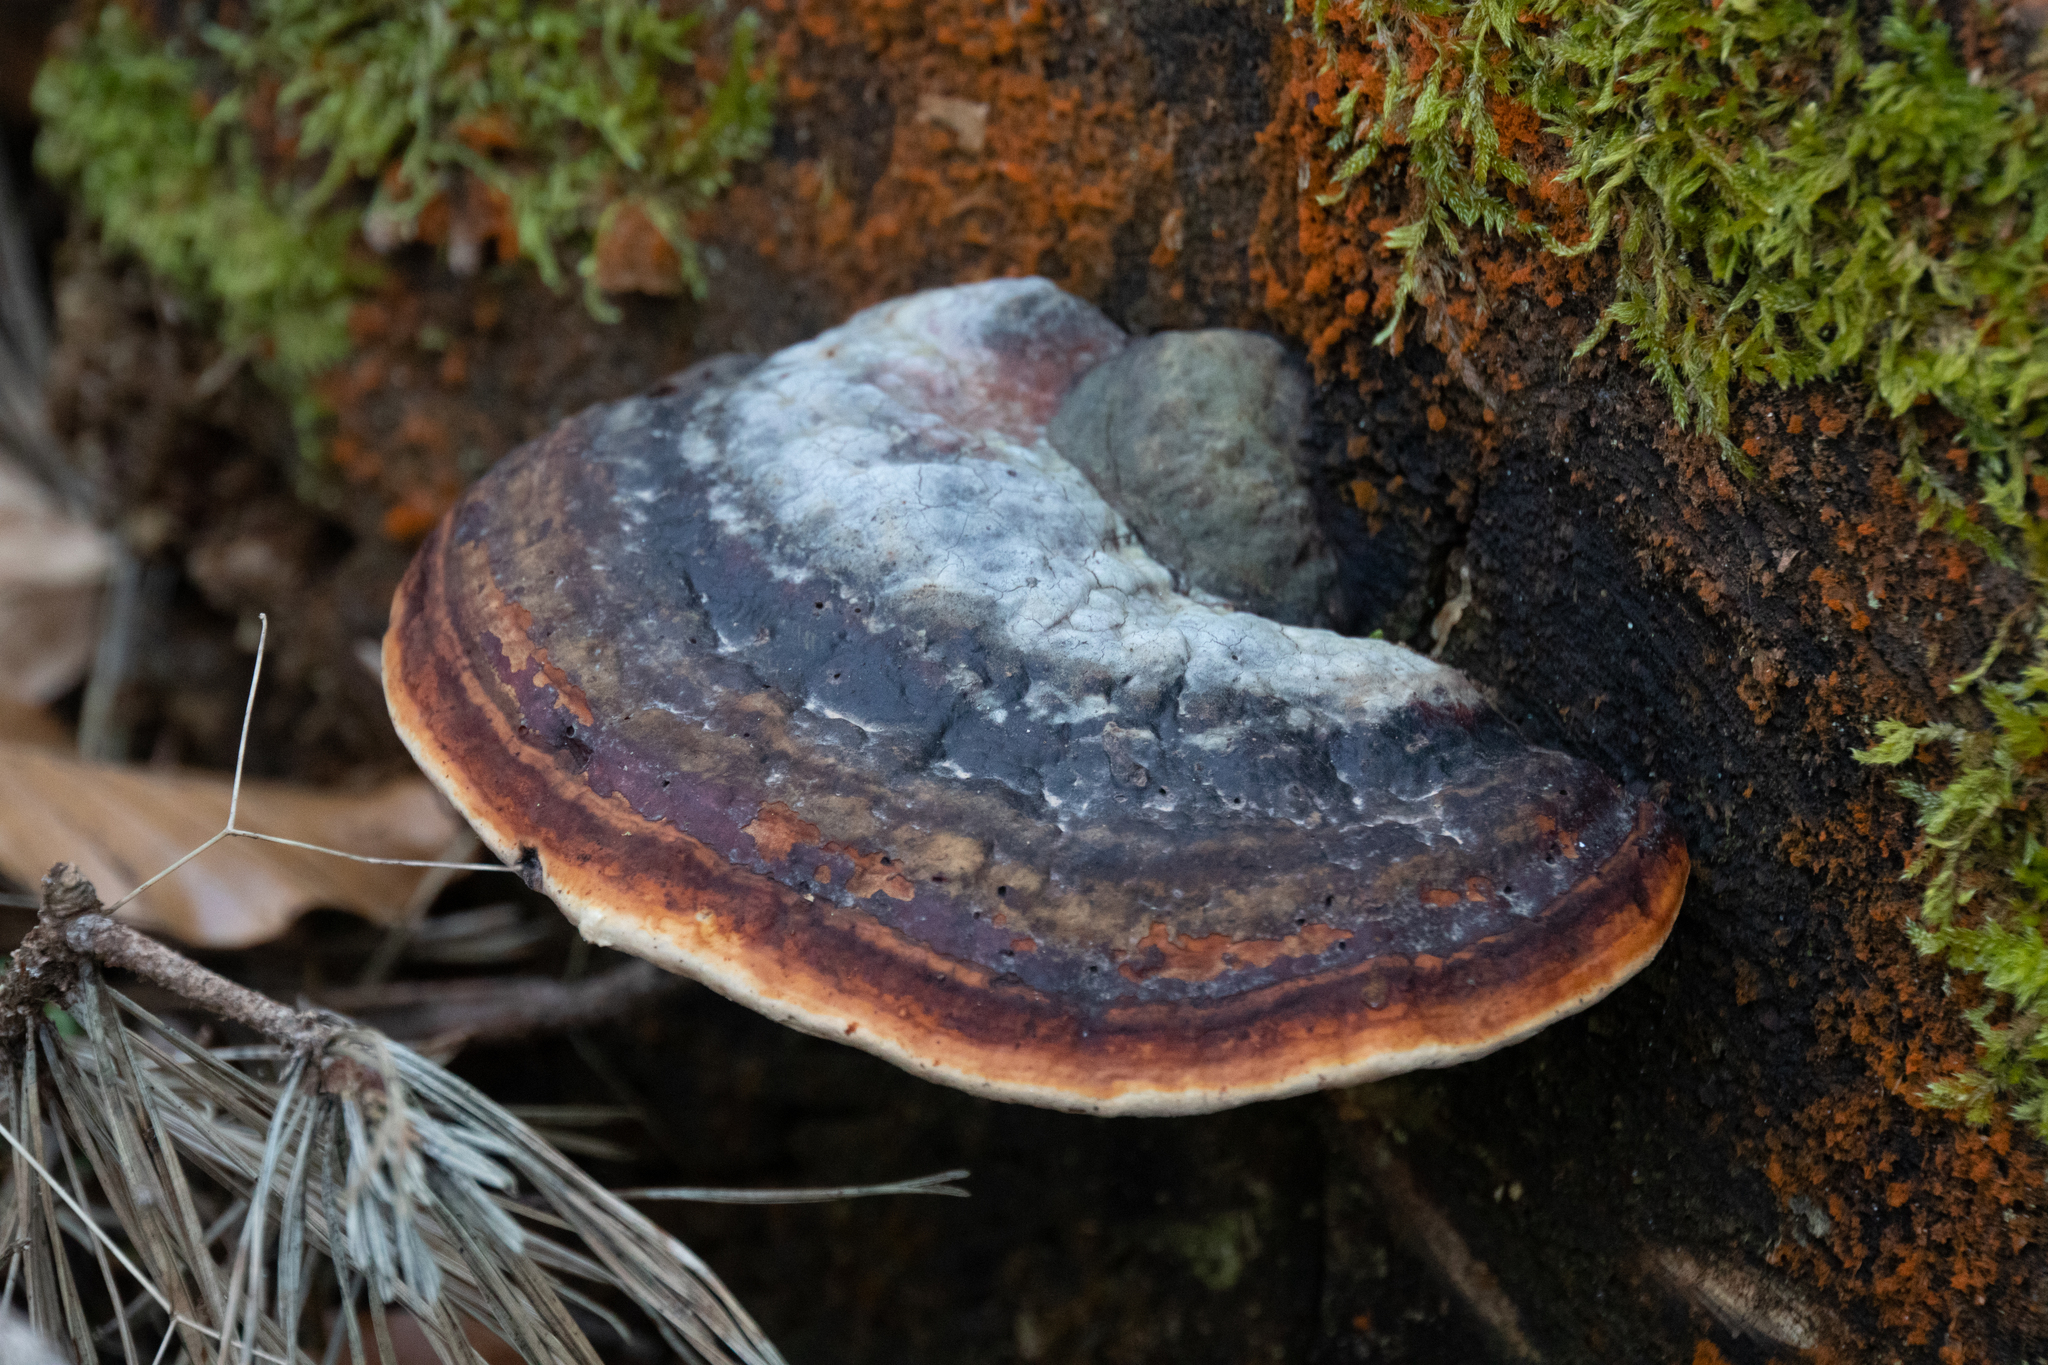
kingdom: Fungi
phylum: Basidiomycota
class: Agaricomycetes
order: Polyporales
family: Fomitopsidaceae
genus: Fomitopsis
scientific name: Fomitopsis pinicola
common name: Red-belted bracket
